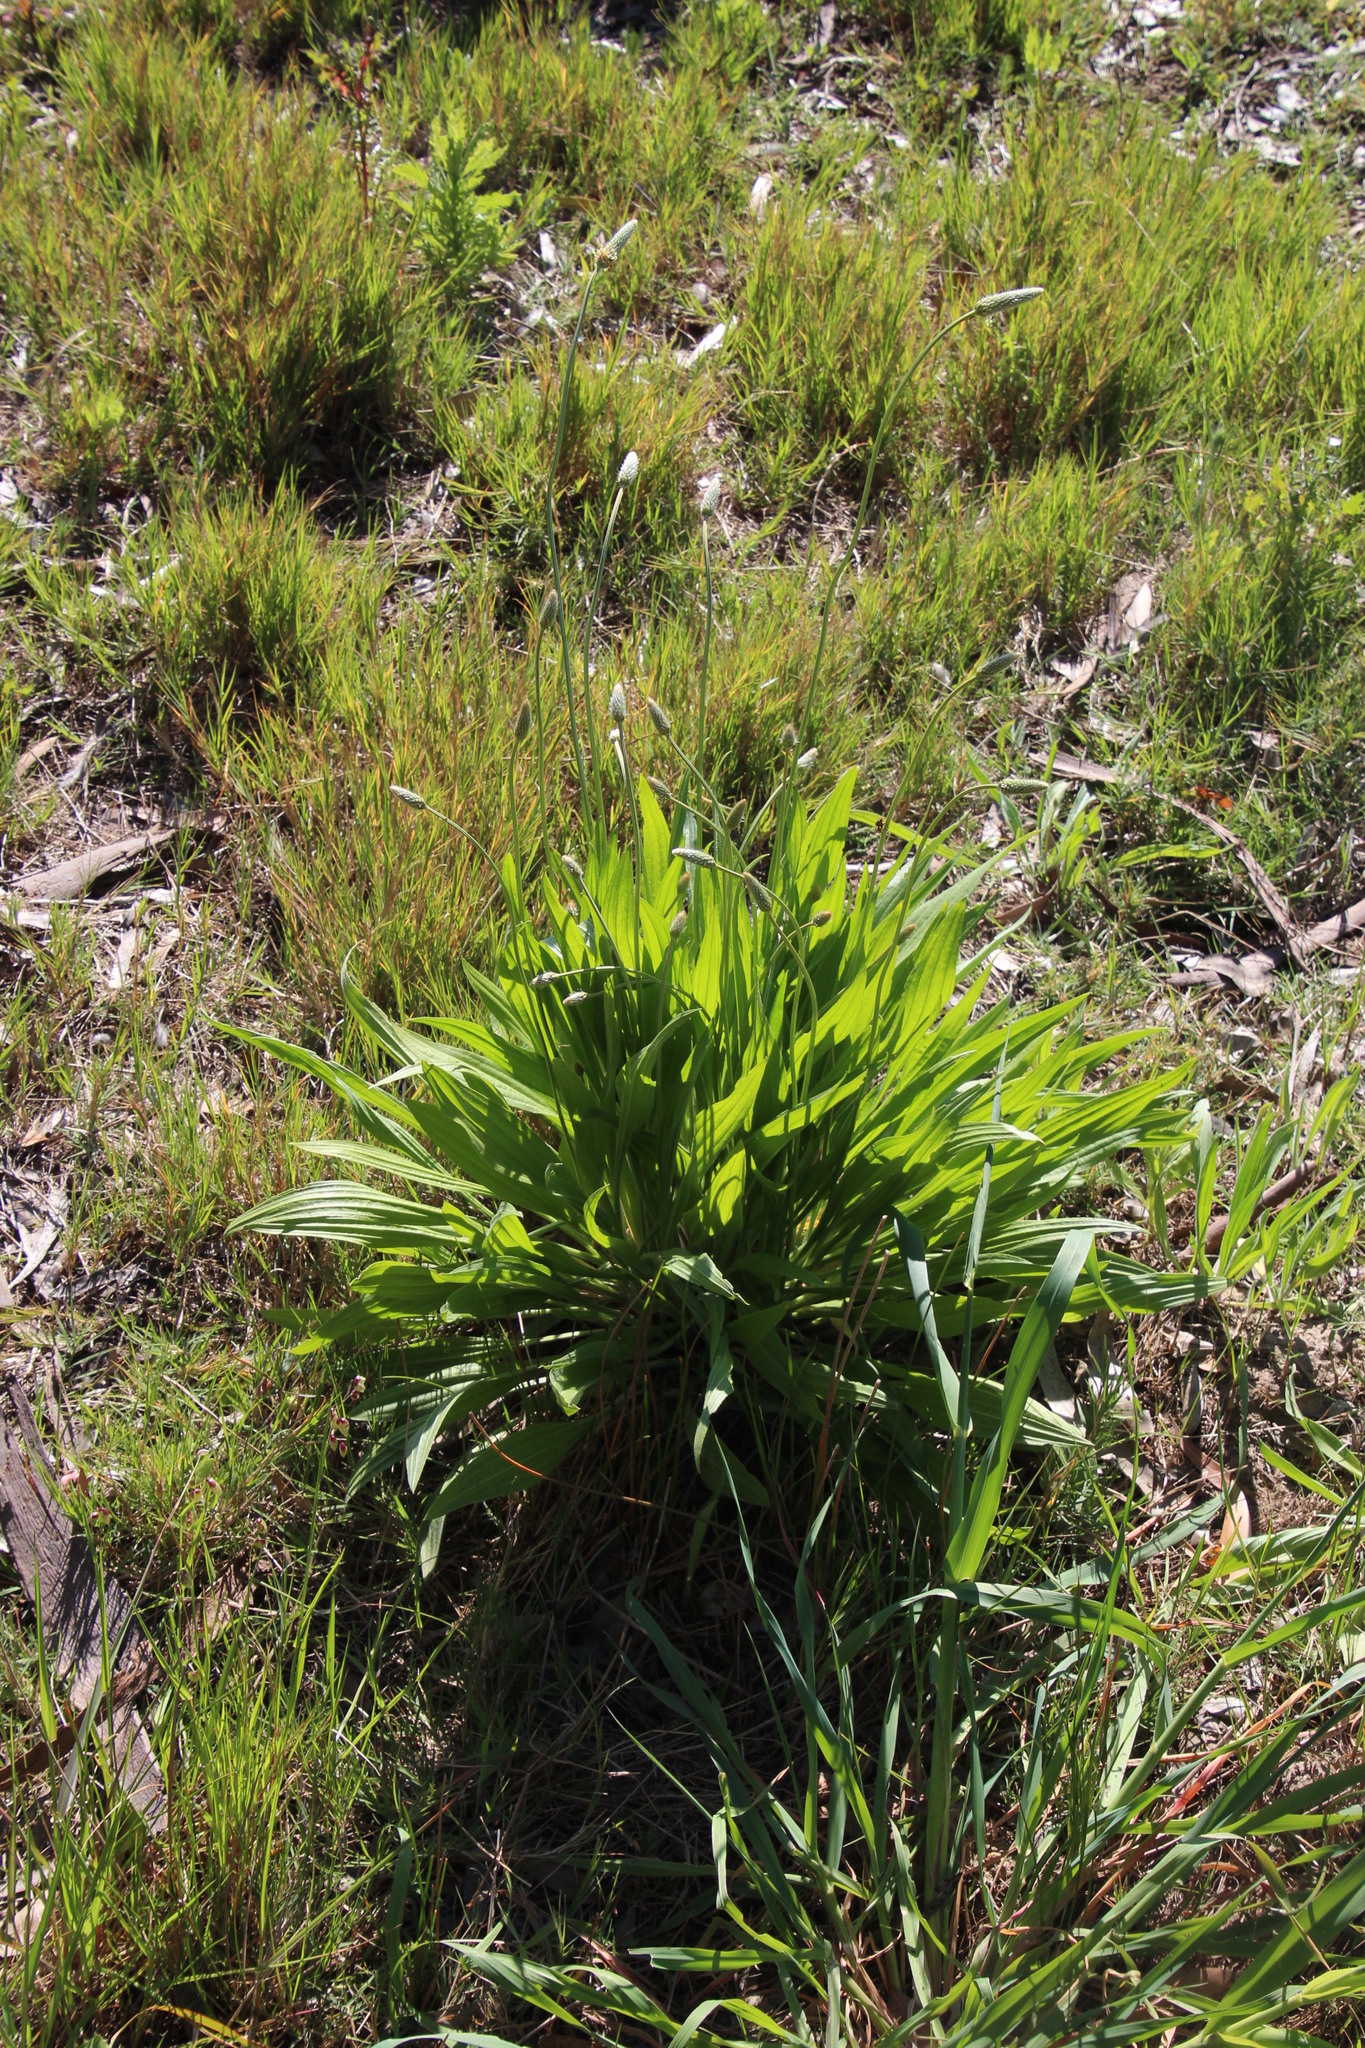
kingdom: Plantae
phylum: Tracheophyta
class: Magnoliopsida
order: Lamiales
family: Plantaginaceae
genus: Plantago
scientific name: Plantago lanceolata
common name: Ribwort plantain
